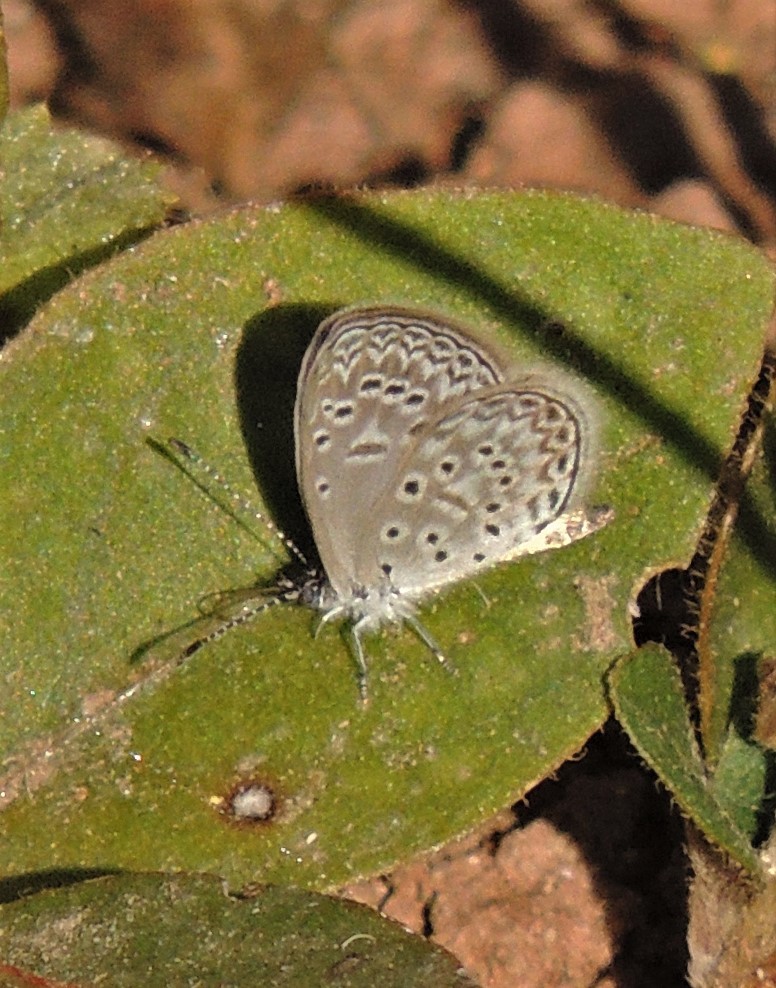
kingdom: Animalia
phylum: Arthropoda
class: Insecta
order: Lepidoptera
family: Lycaenidae
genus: Lycaena
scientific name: Lycaena cyna
